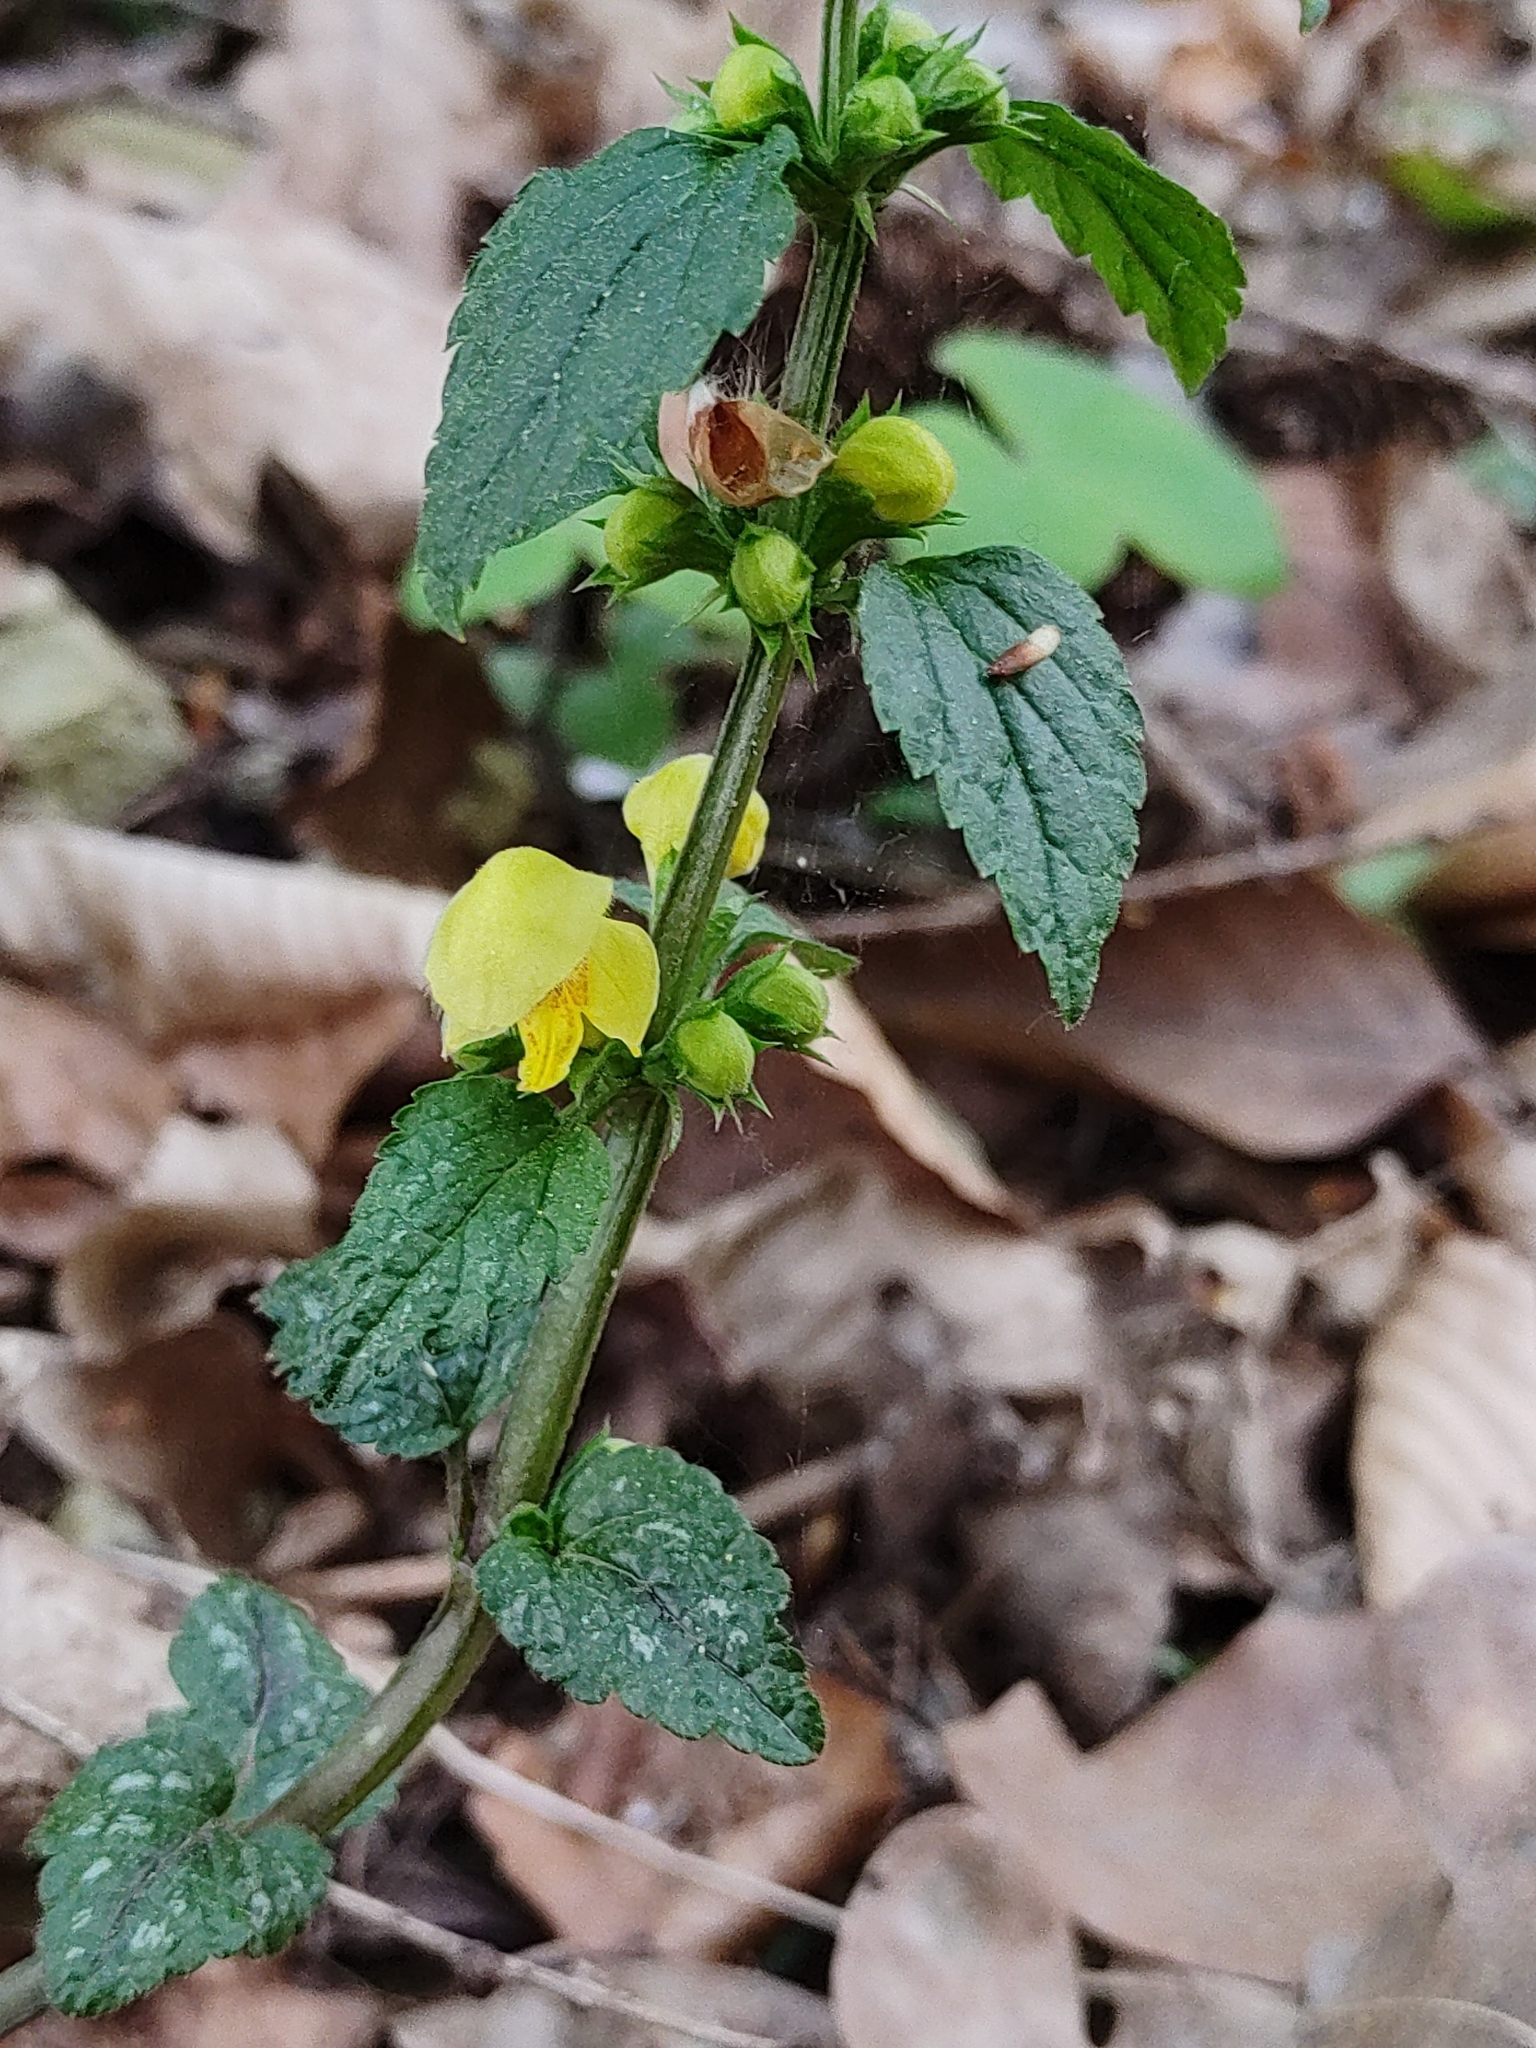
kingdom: Plantae
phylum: Tracheophyta
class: Magnoliopsida
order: Lamiales
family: Lamiaceae
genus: Lamium
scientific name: Lamium galeobdolon
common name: Yellow archangel
